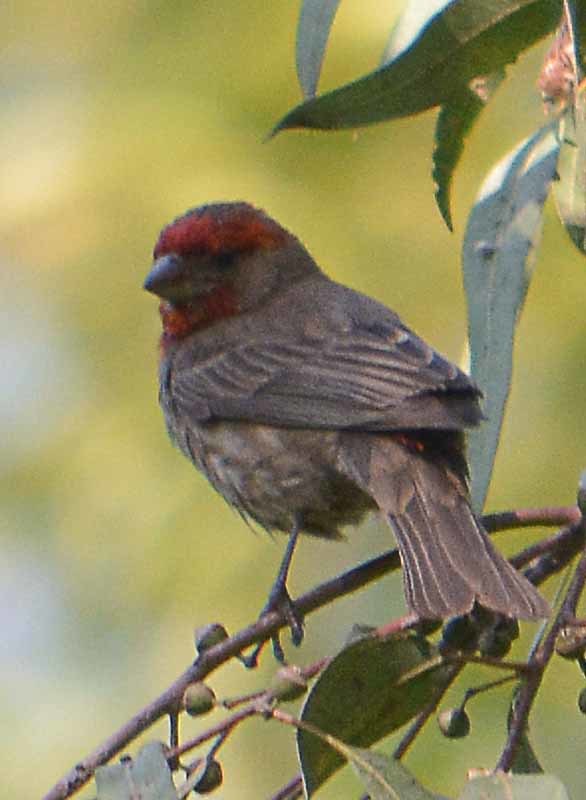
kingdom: Animalia
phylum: Chordata
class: Aves
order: Passeriformes
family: Fringillidae
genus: Haemorhous
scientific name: Haemorhous mexicanus
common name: House finch
